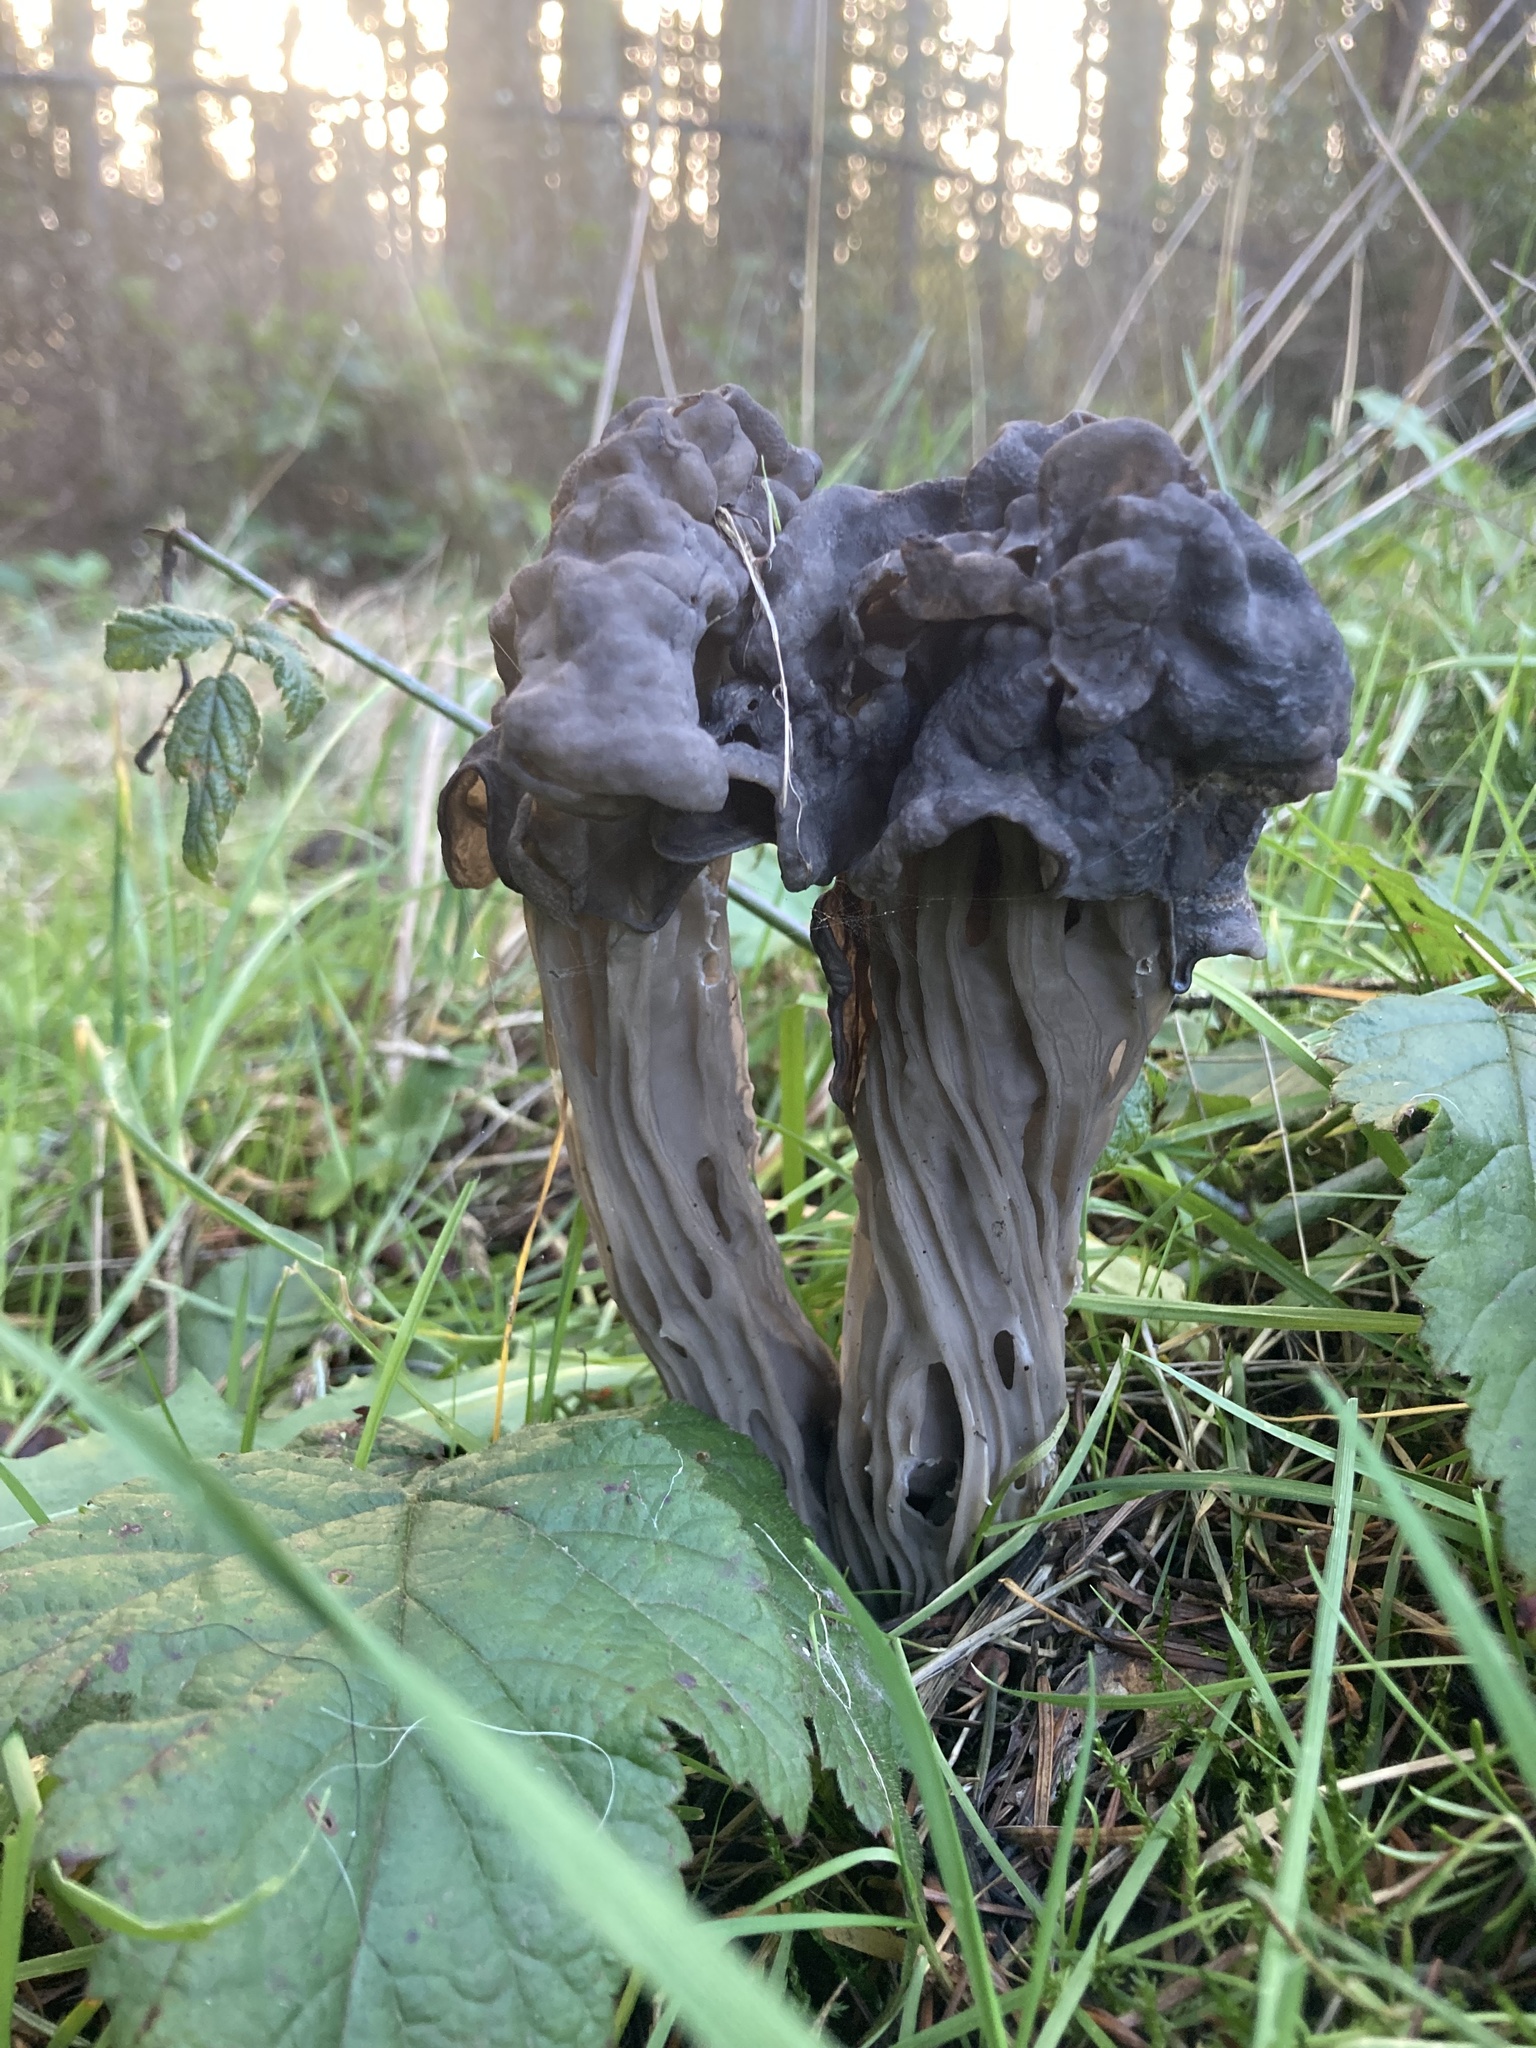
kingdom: Fungi
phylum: Ascomycota
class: Pezizomycetes
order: Pezizales
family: Helvellaceae
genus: Helvella
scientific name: Helvella vespertina
